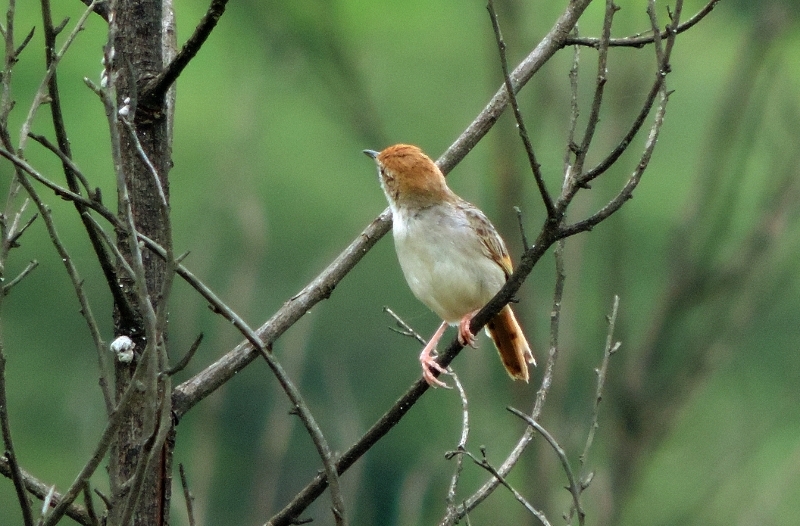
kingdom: Animalia
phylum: Chordata
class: Aves
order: Passeriformes
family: Cisticolidae
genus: Cisticola
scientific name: Cisticola lais
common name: Wailing cisticola
